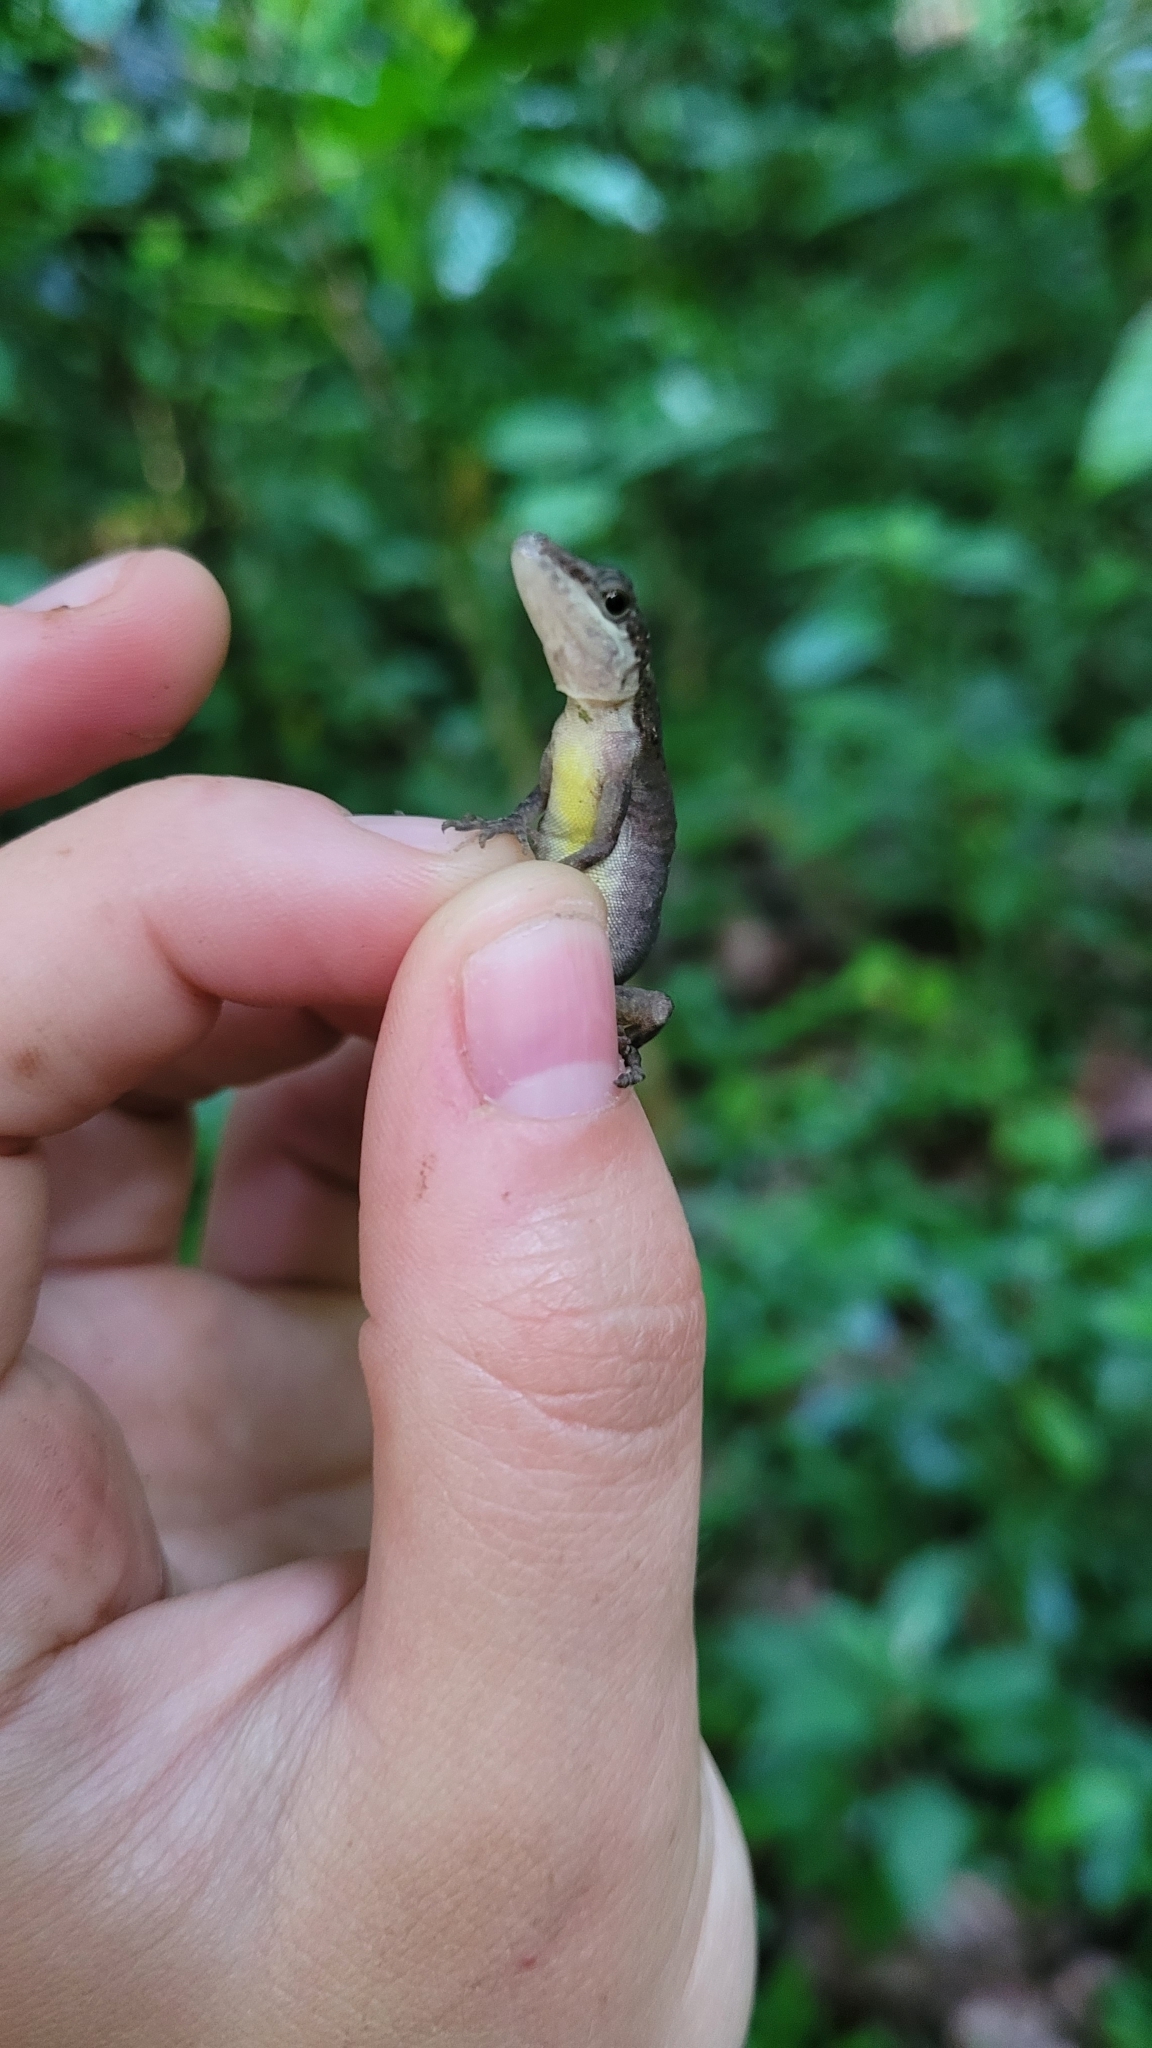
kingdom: Animalia
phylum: Chordata
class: Squamata
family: Dactyloidae
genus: Anolis
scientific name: Anolis zeus
